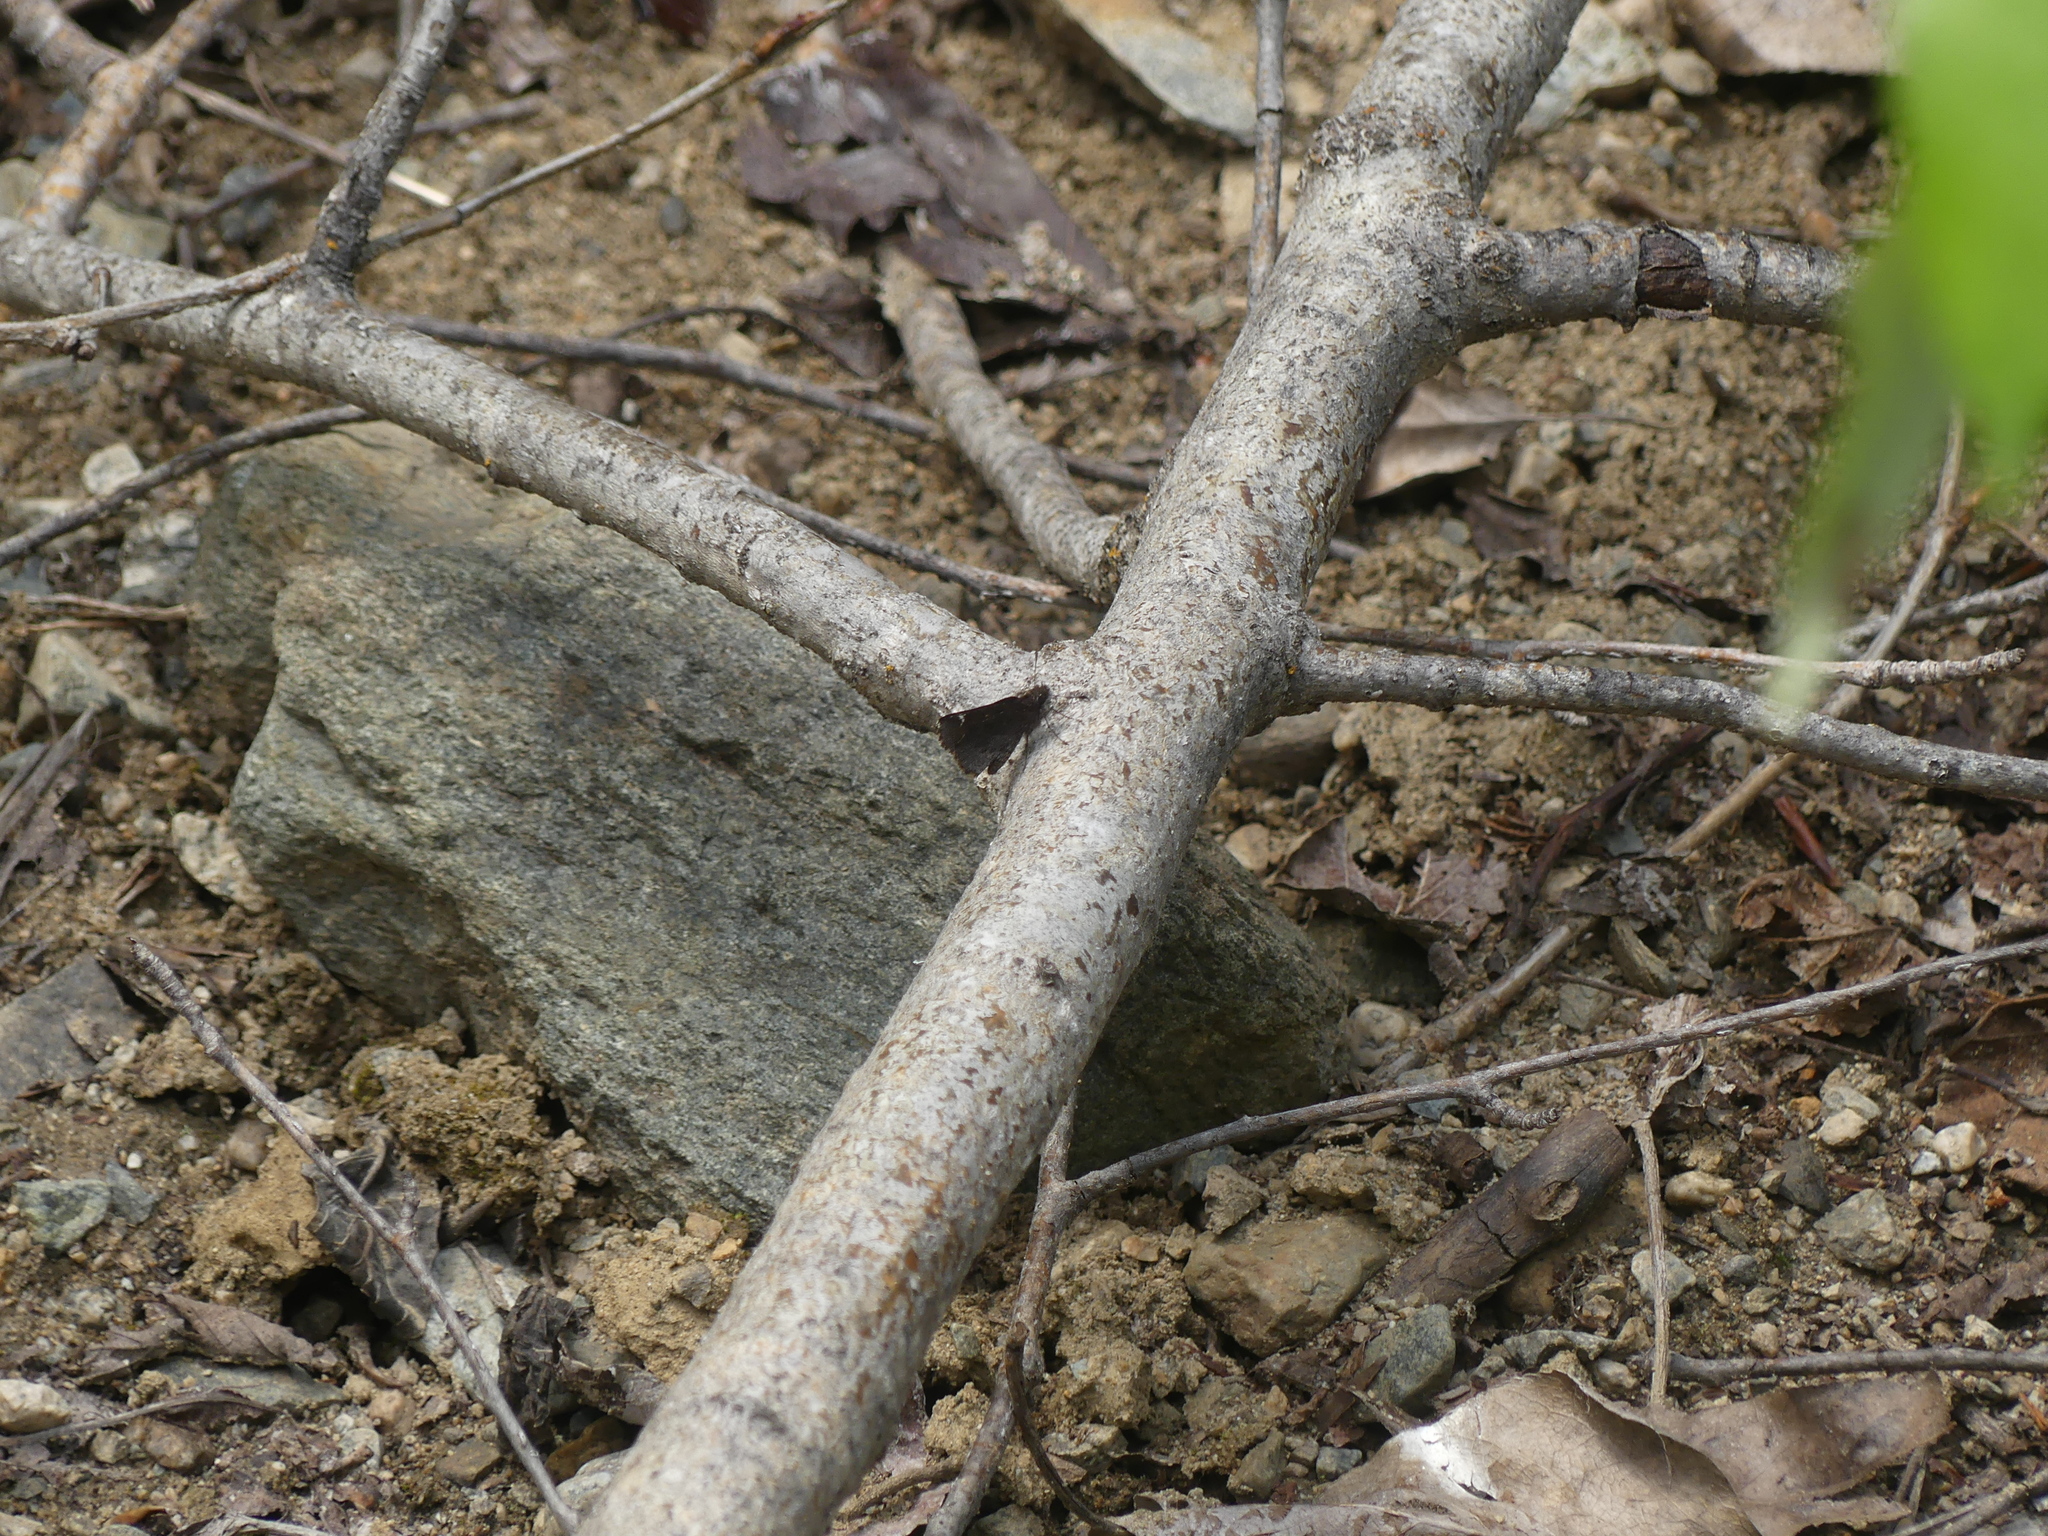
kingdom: Animalia
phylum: Arthropoda
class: Insecta
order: Lepidoptera
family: Hesperiidae
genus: Mastor
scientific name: Mastor vialis
